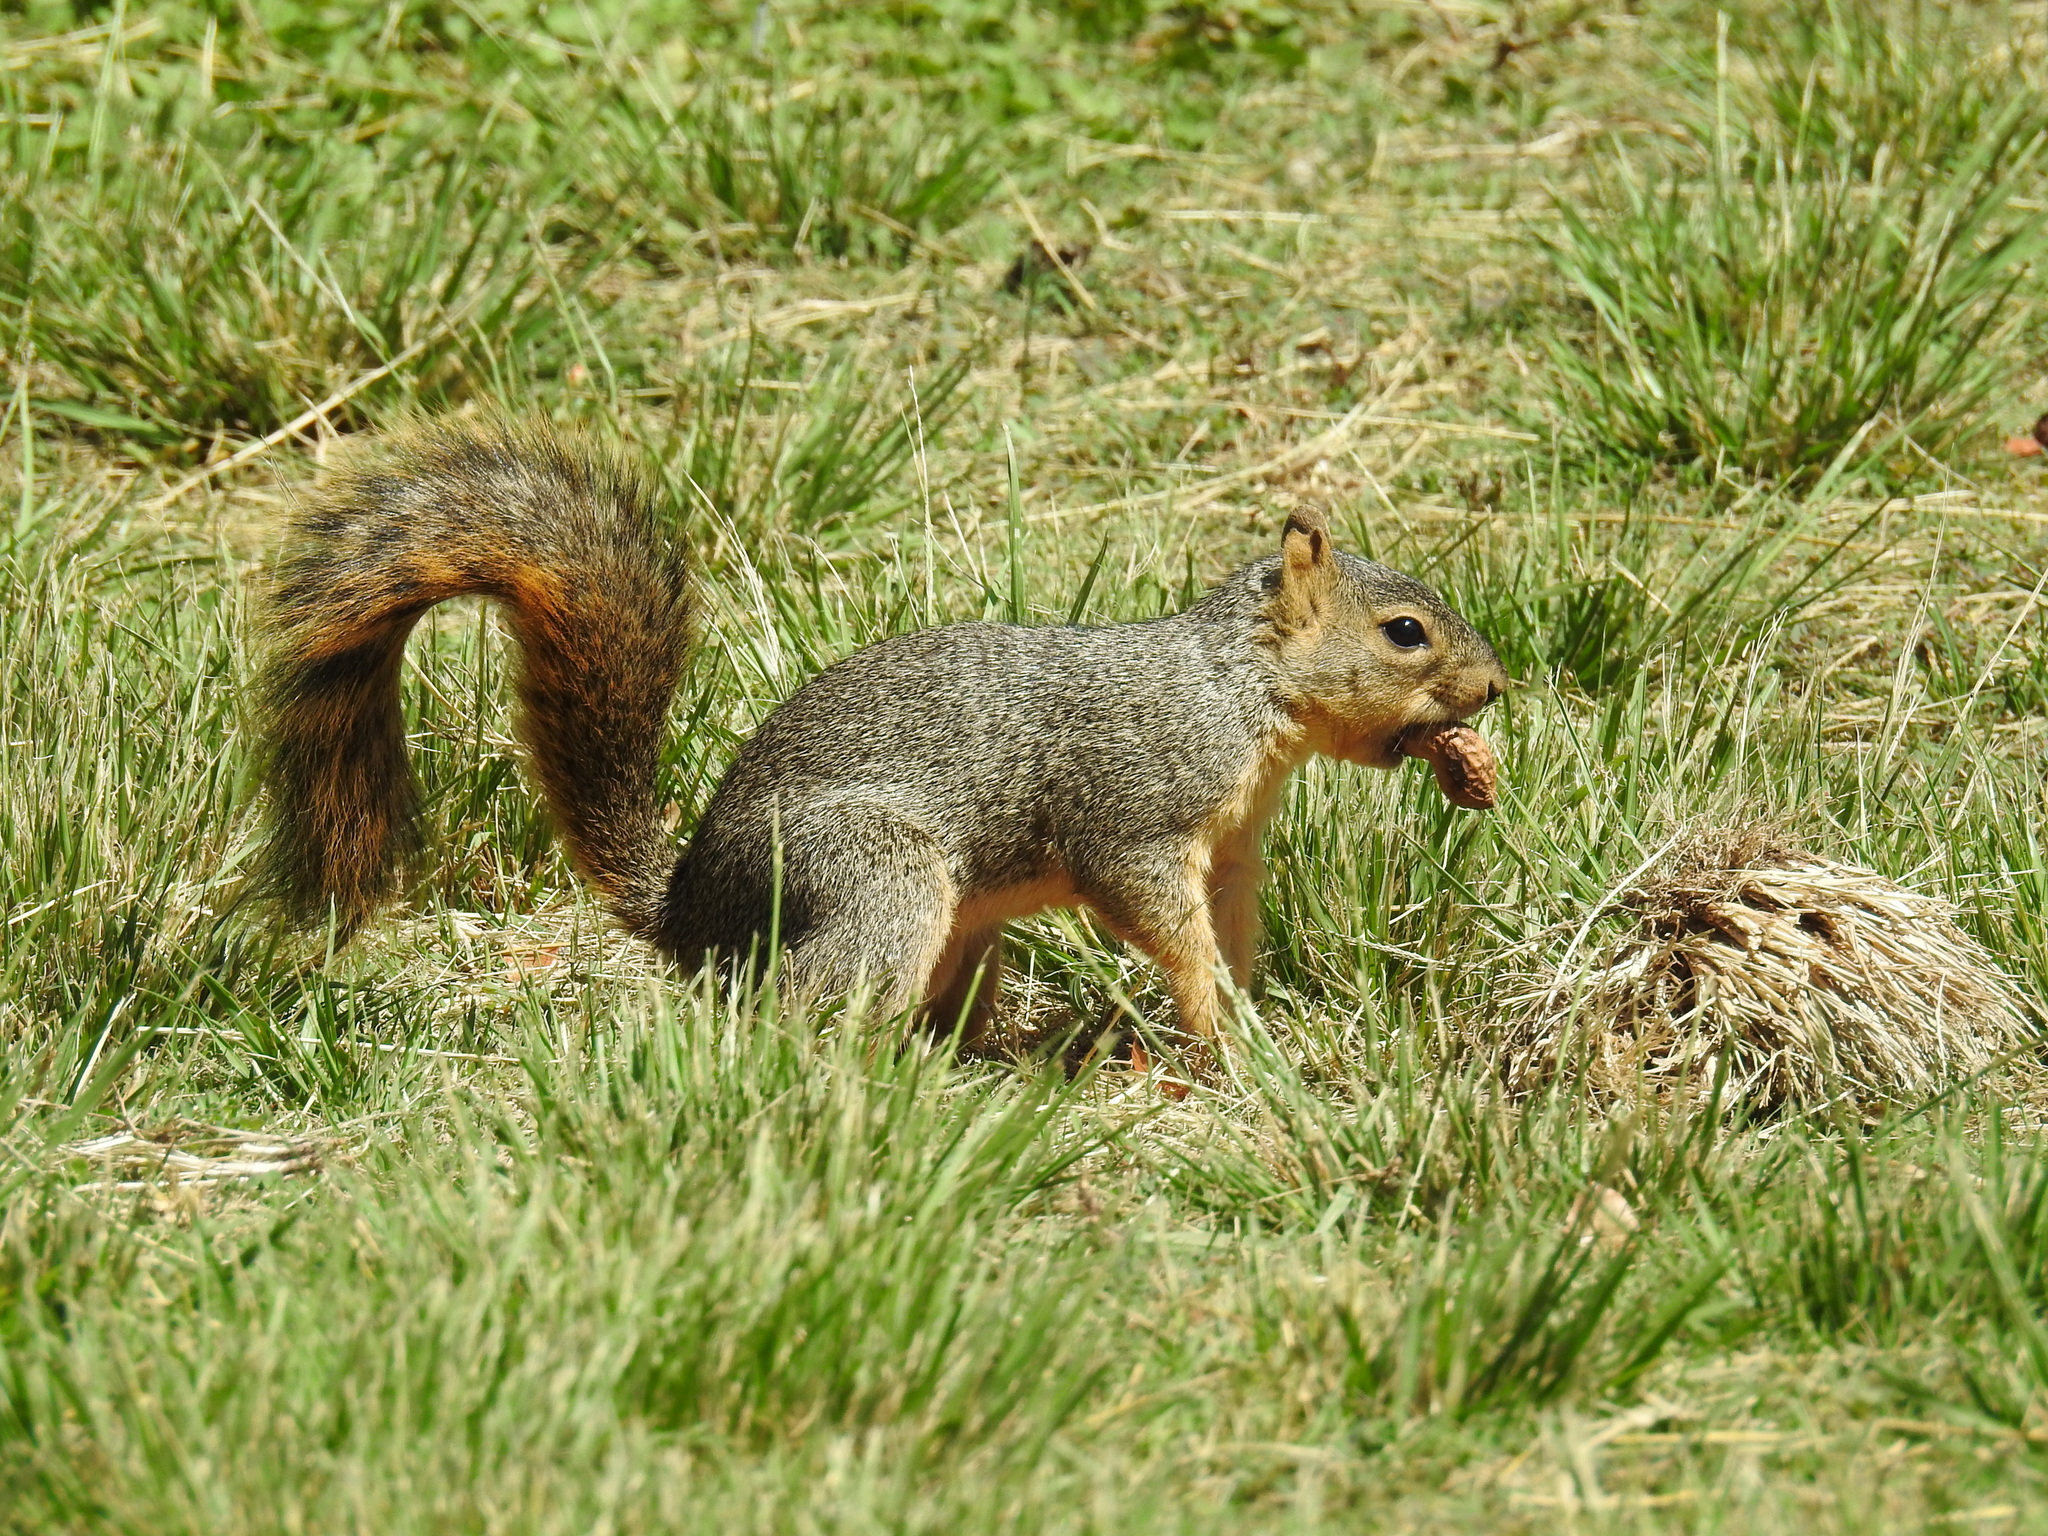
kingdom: Animalia
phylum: Chordata
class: Mammalia
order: Rodentia
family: Sciuridae
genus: Sciurus
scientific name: Sciurus niger
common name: Fox squirrel
